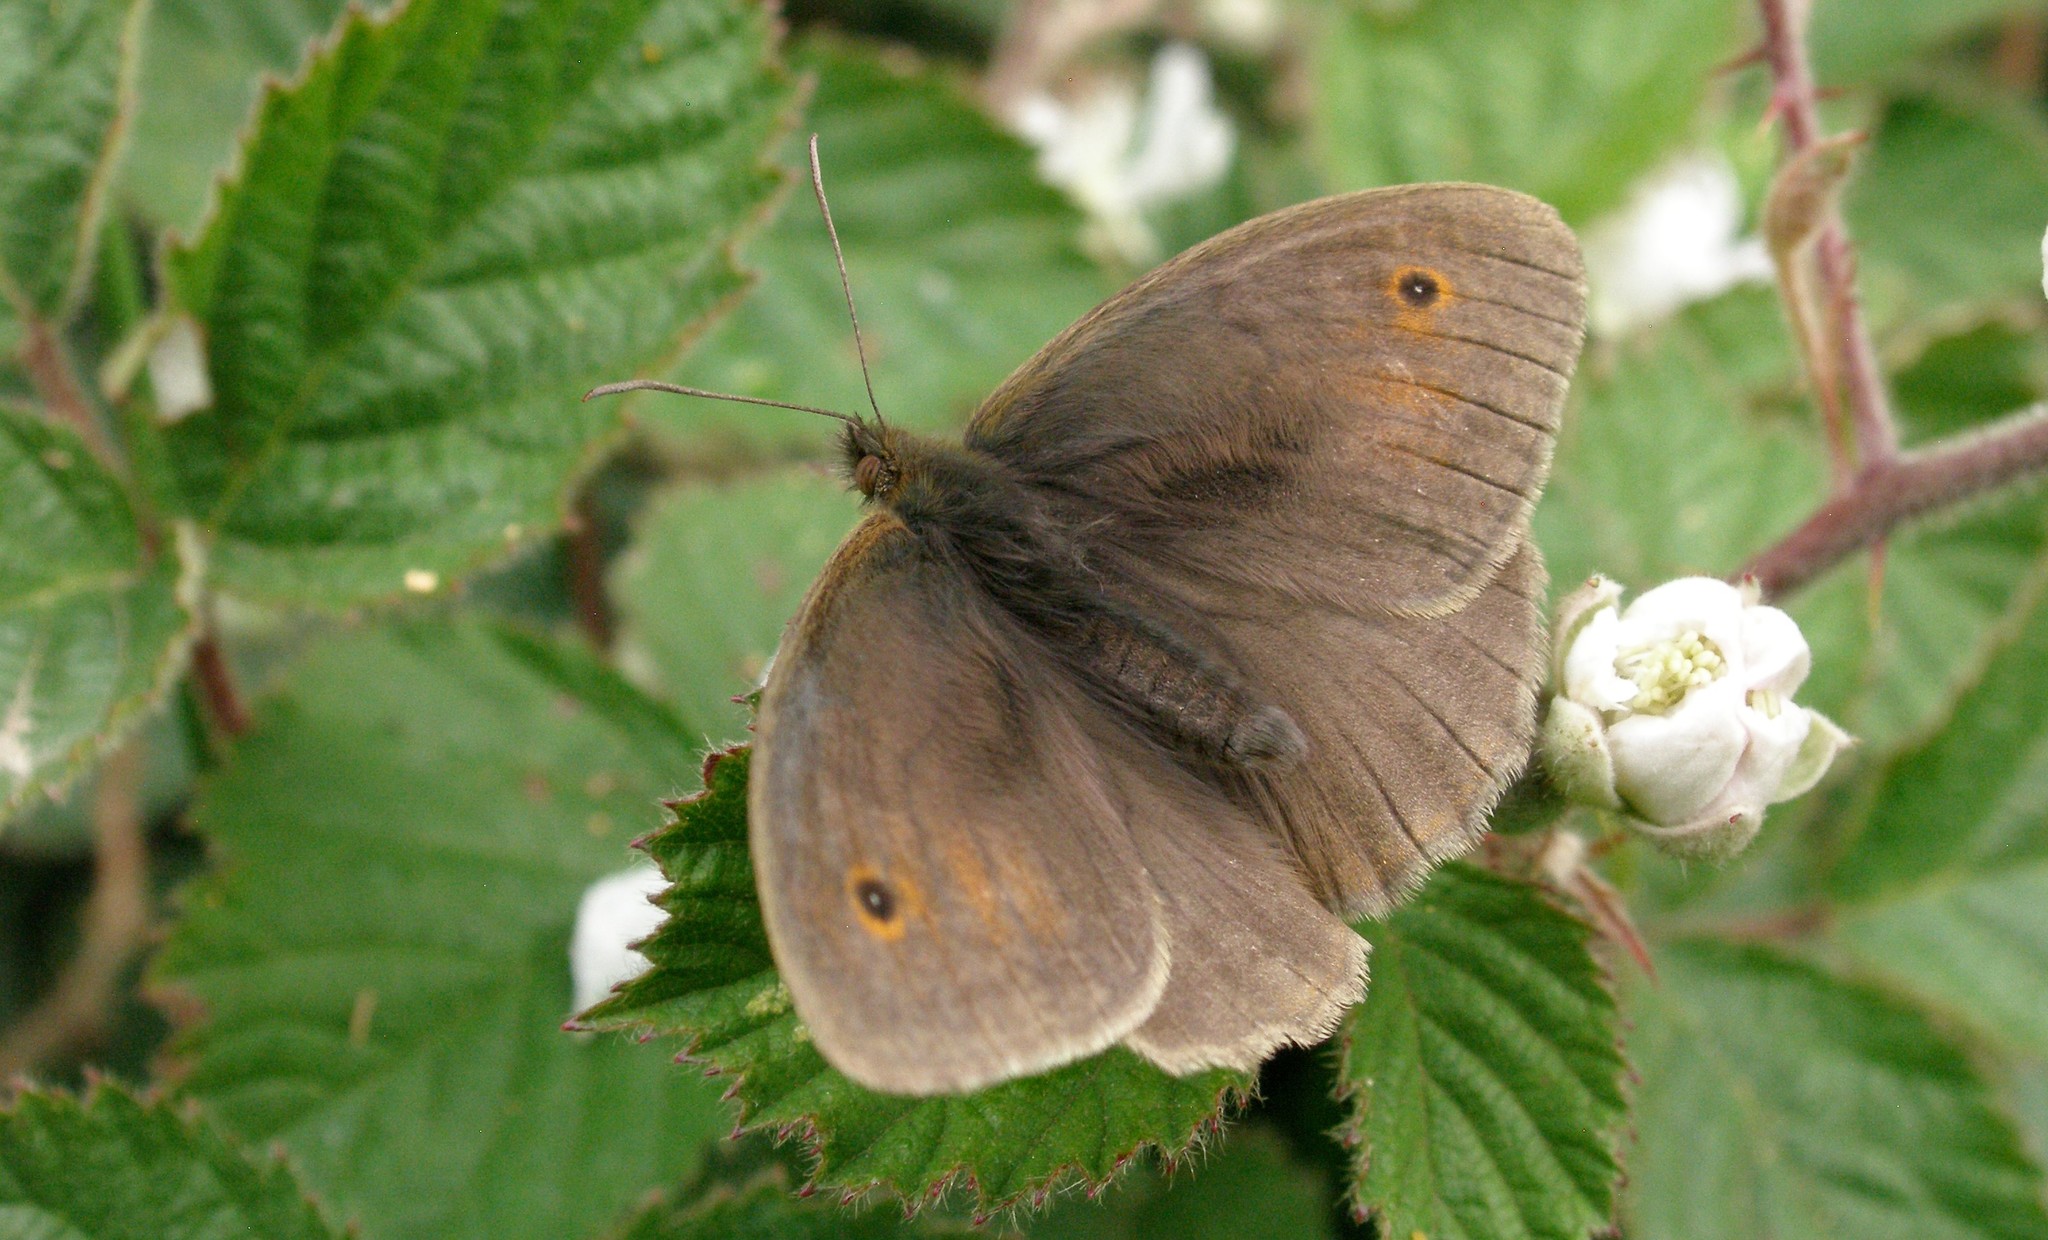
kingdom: Animalia
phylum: Arthropoda
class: Insecta
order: Lepidoptera
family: Nymphalidae
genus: Maniola
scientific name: Maniola jurtina
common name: Meadow brown
